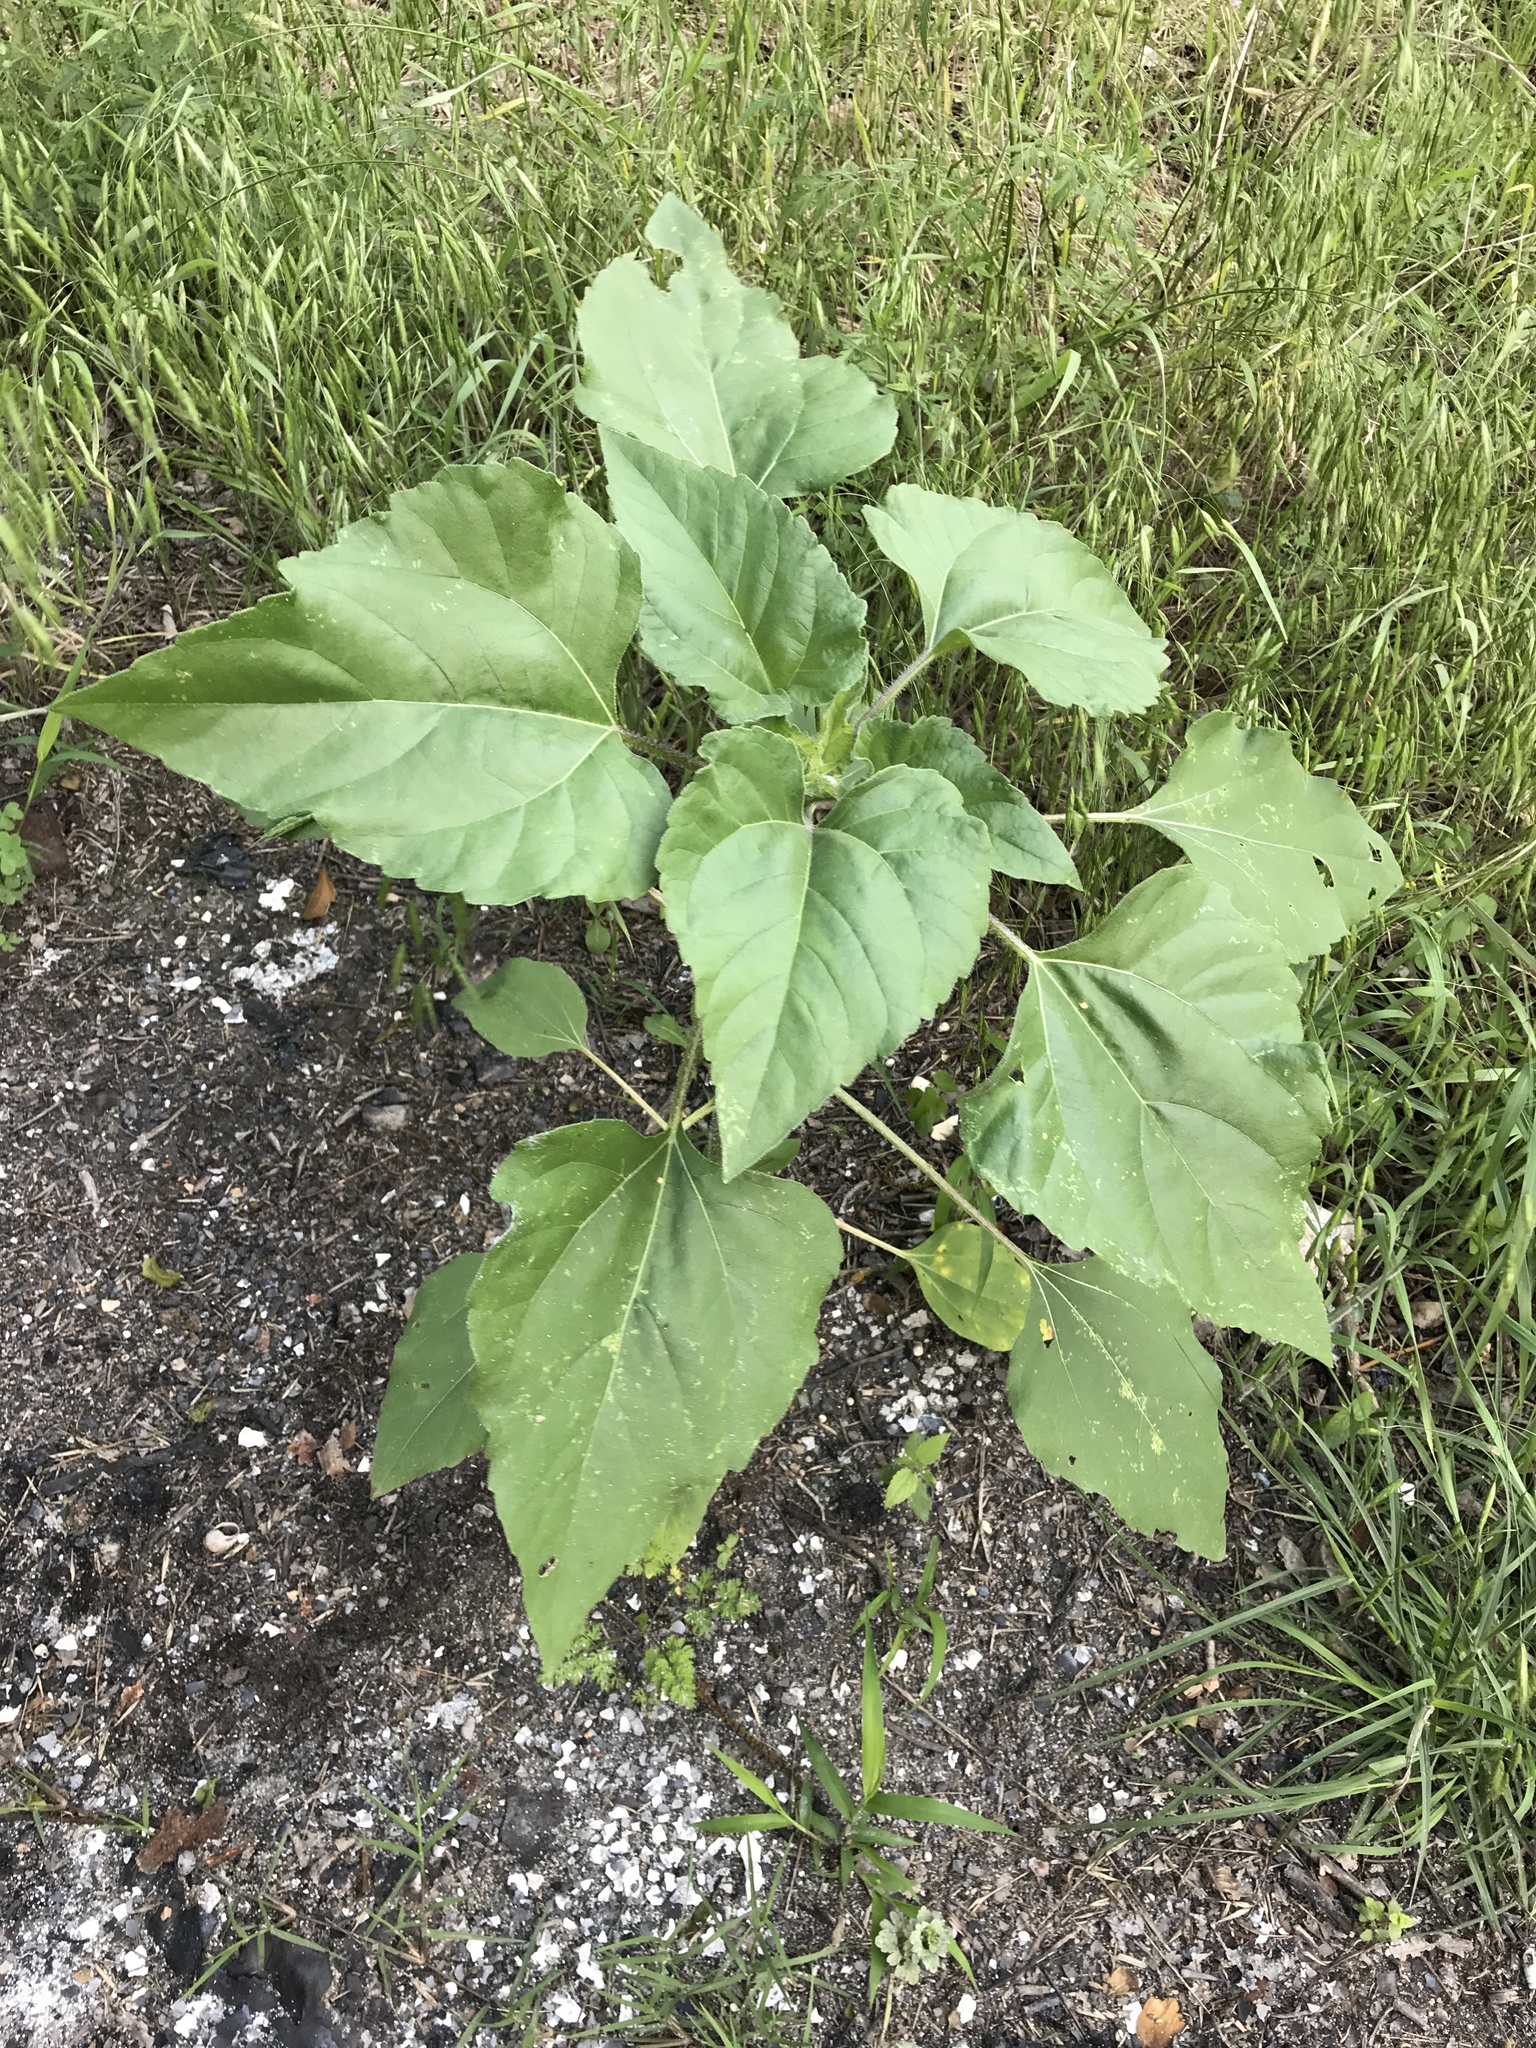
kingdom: Plantae
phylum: Tracheophyta
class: Magnoliopsida
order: Asterales
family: Asteraceae
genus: Helianthus
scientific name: Helianthus annuus
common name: Sunflower
